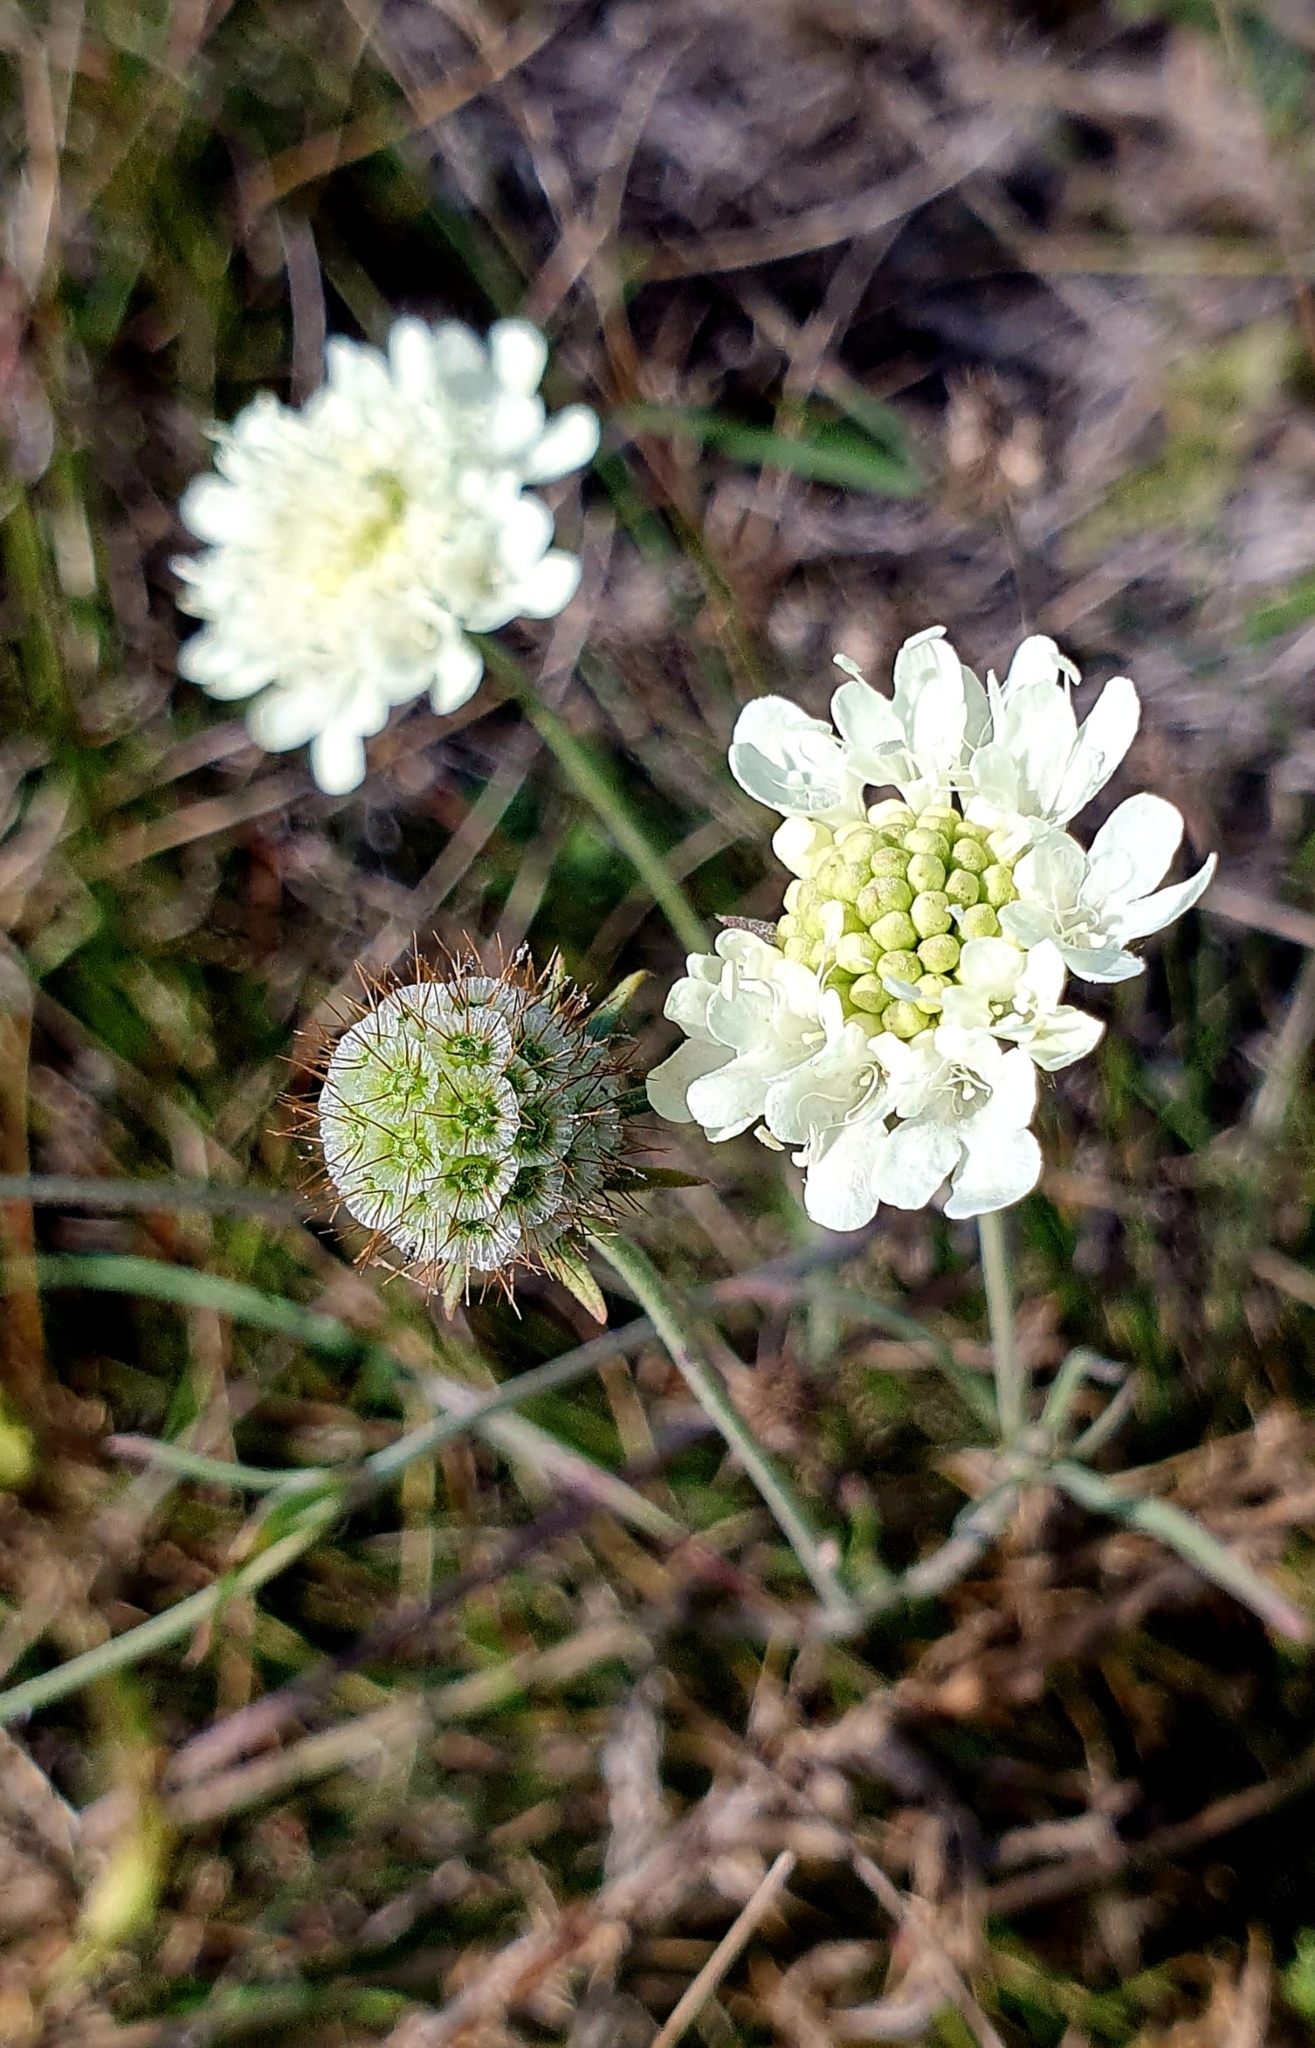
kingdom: Plantae
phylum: Tracheophyta
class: Magnoliopsida
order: Dipsacales
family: Caprifoliaceae
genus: Scabiosa
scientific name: Scabiosa ochroleuca
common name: Cream pincushions
